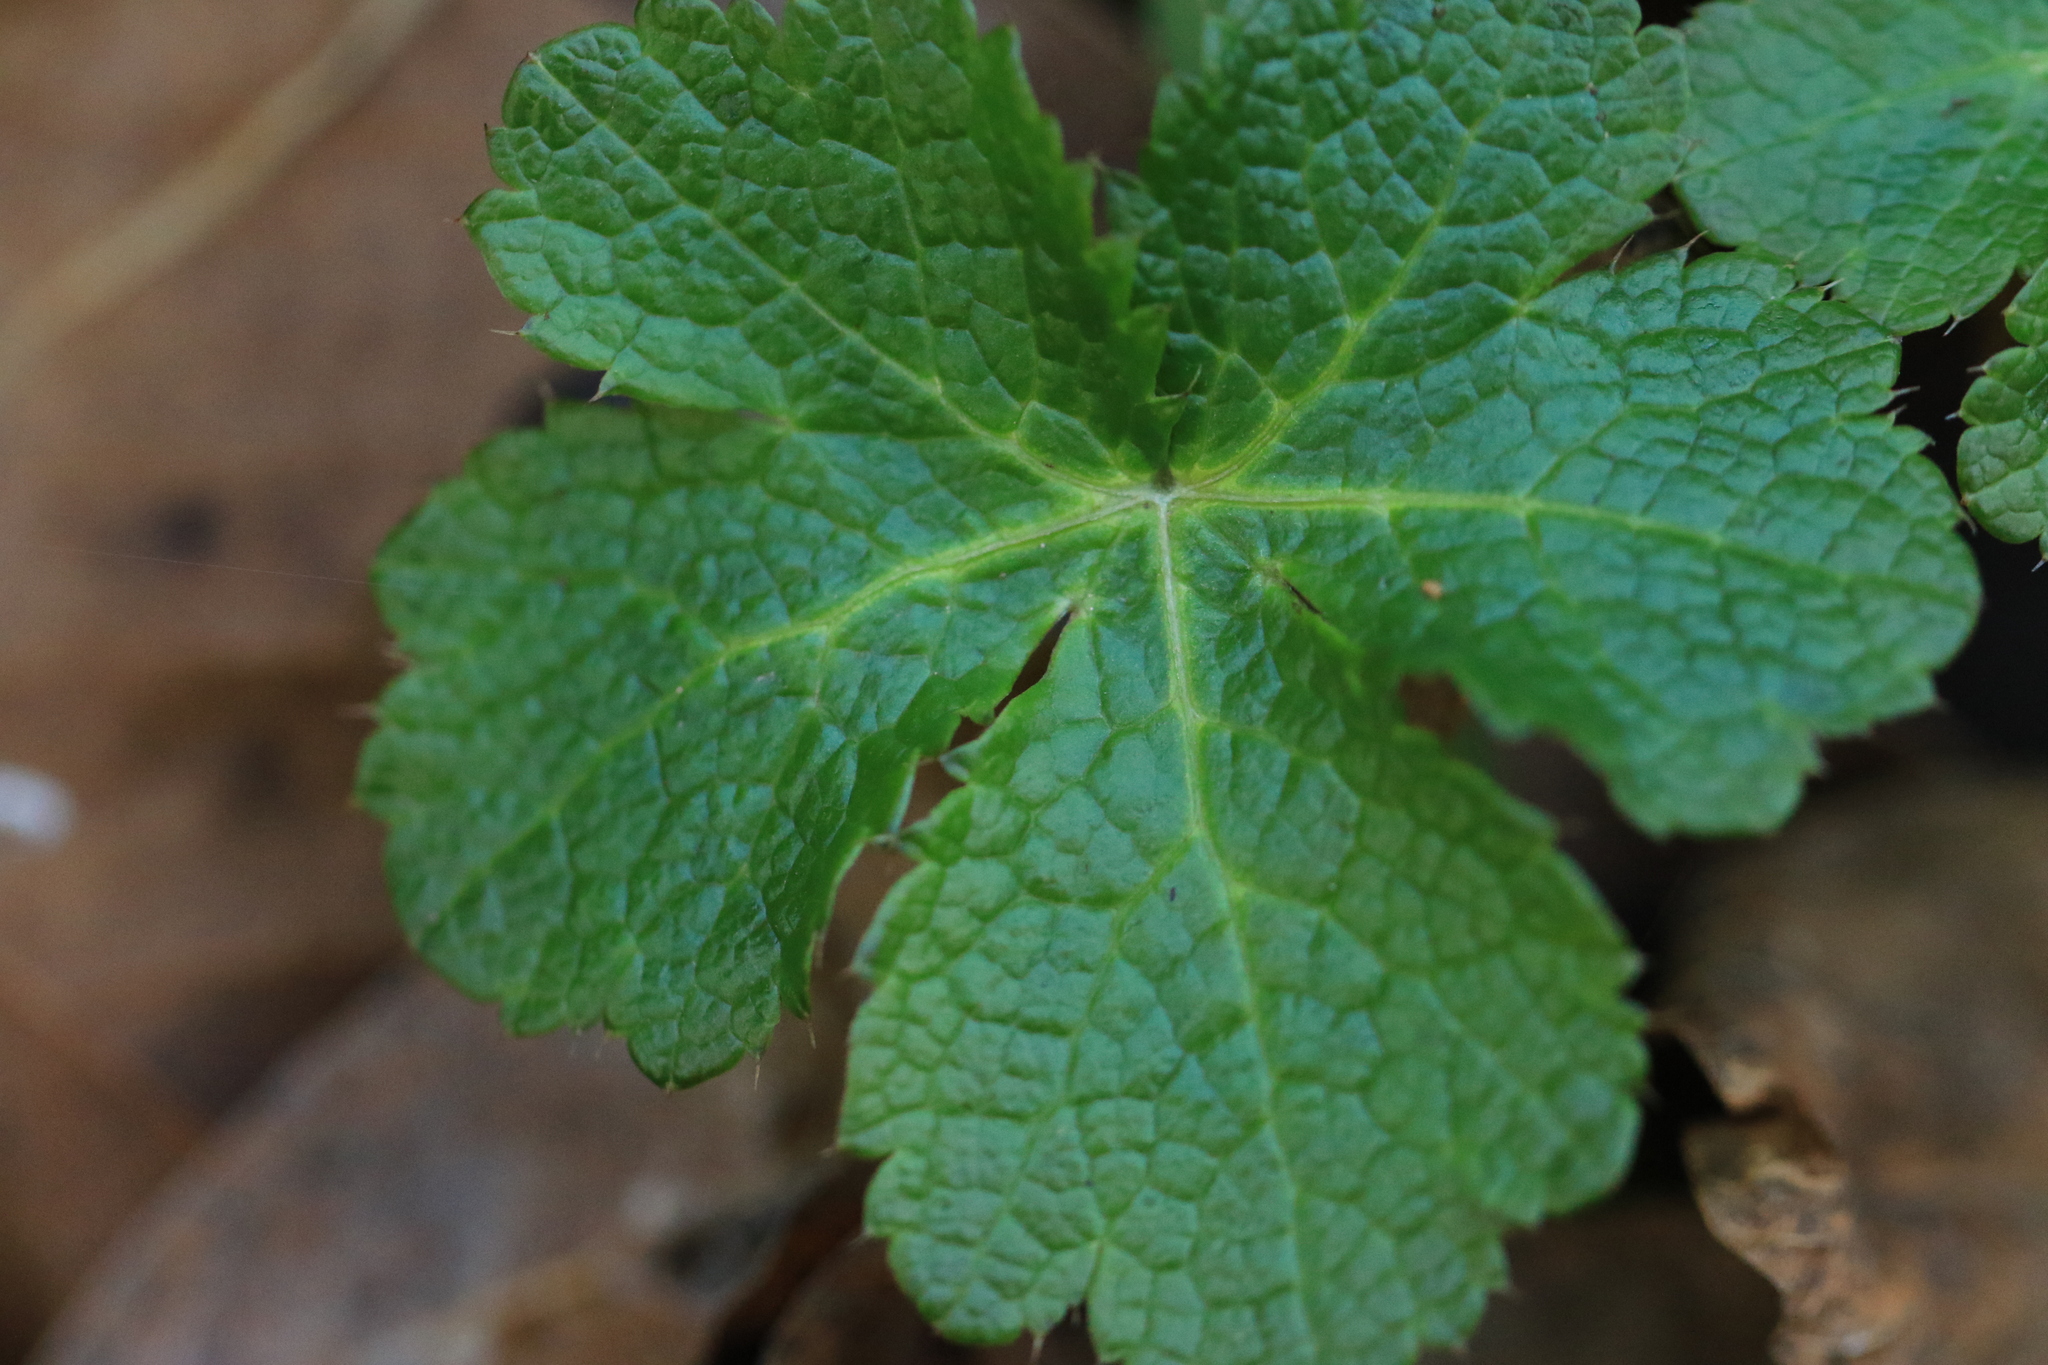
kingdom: Plantae
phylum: Tracheophyta
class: Magnoliopsida
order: Apiales
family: Apiaceae
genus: Sanicula
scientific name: Sanicula crassicaulis
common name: Western snakeroot
